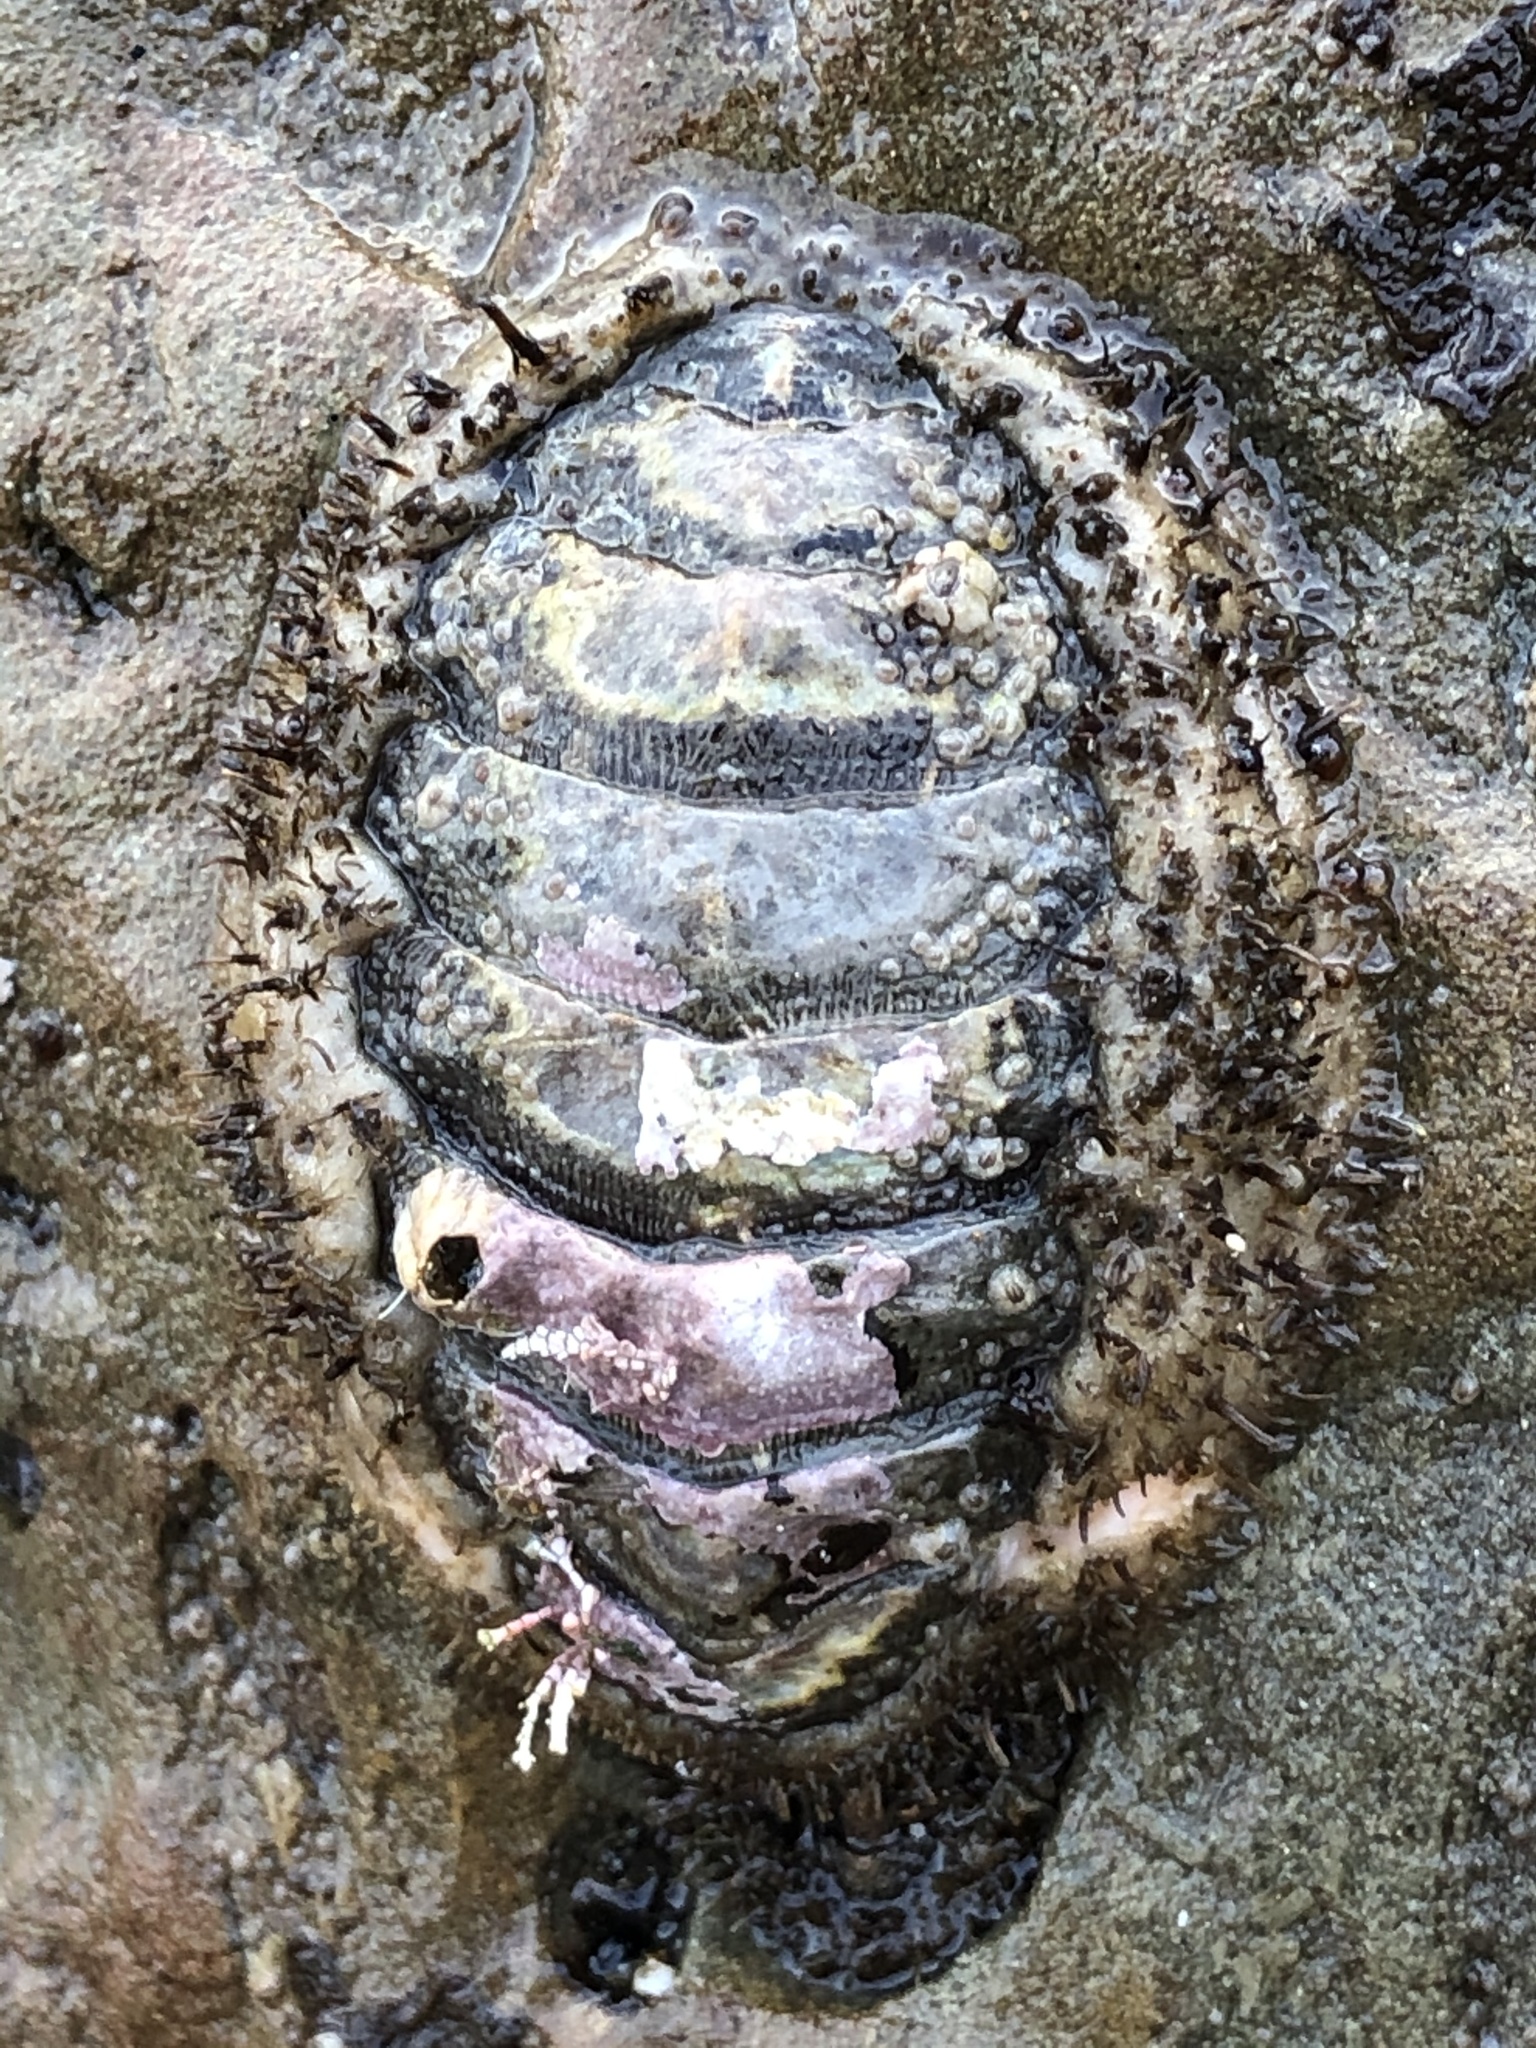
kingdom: Animalia
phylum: Mollusca
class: Polyplacophora
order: Chitonida
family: Mopaliidae
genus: Mopalia
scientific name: Mopalia muscosa
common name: Mossy chiton
